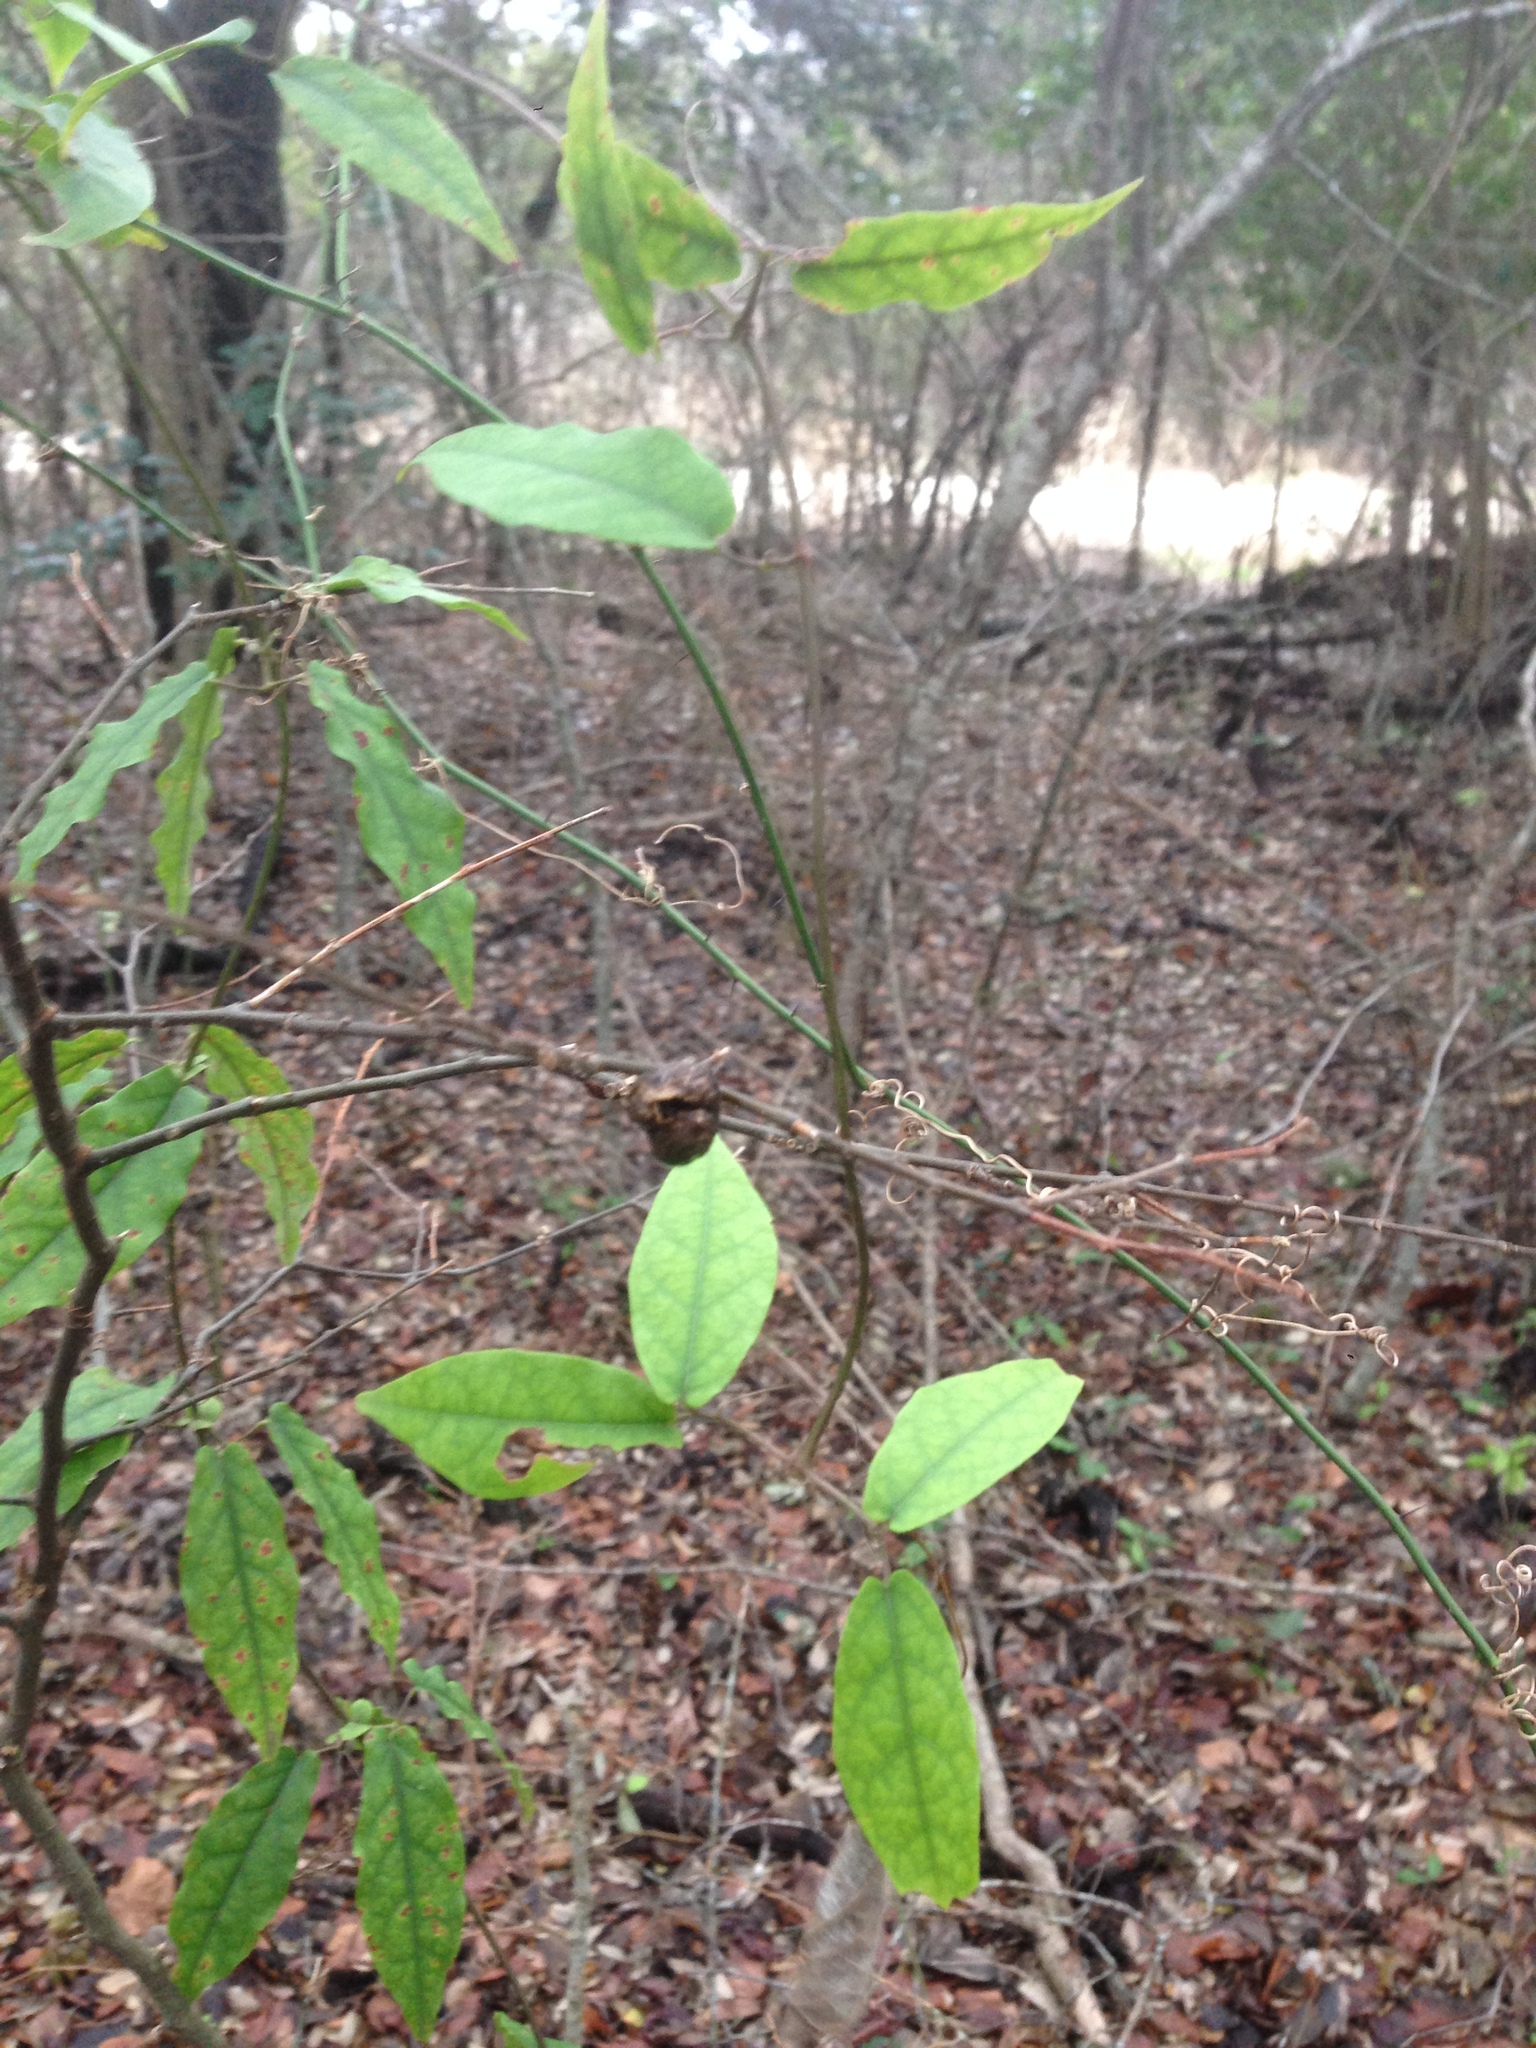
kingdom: Plantae
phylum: Tracheophyta
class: Magnoliopsida
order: Lamiales
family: Bignoniaceae
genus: Bignonia
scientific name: Bignonia capreolata
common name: Crossvine
